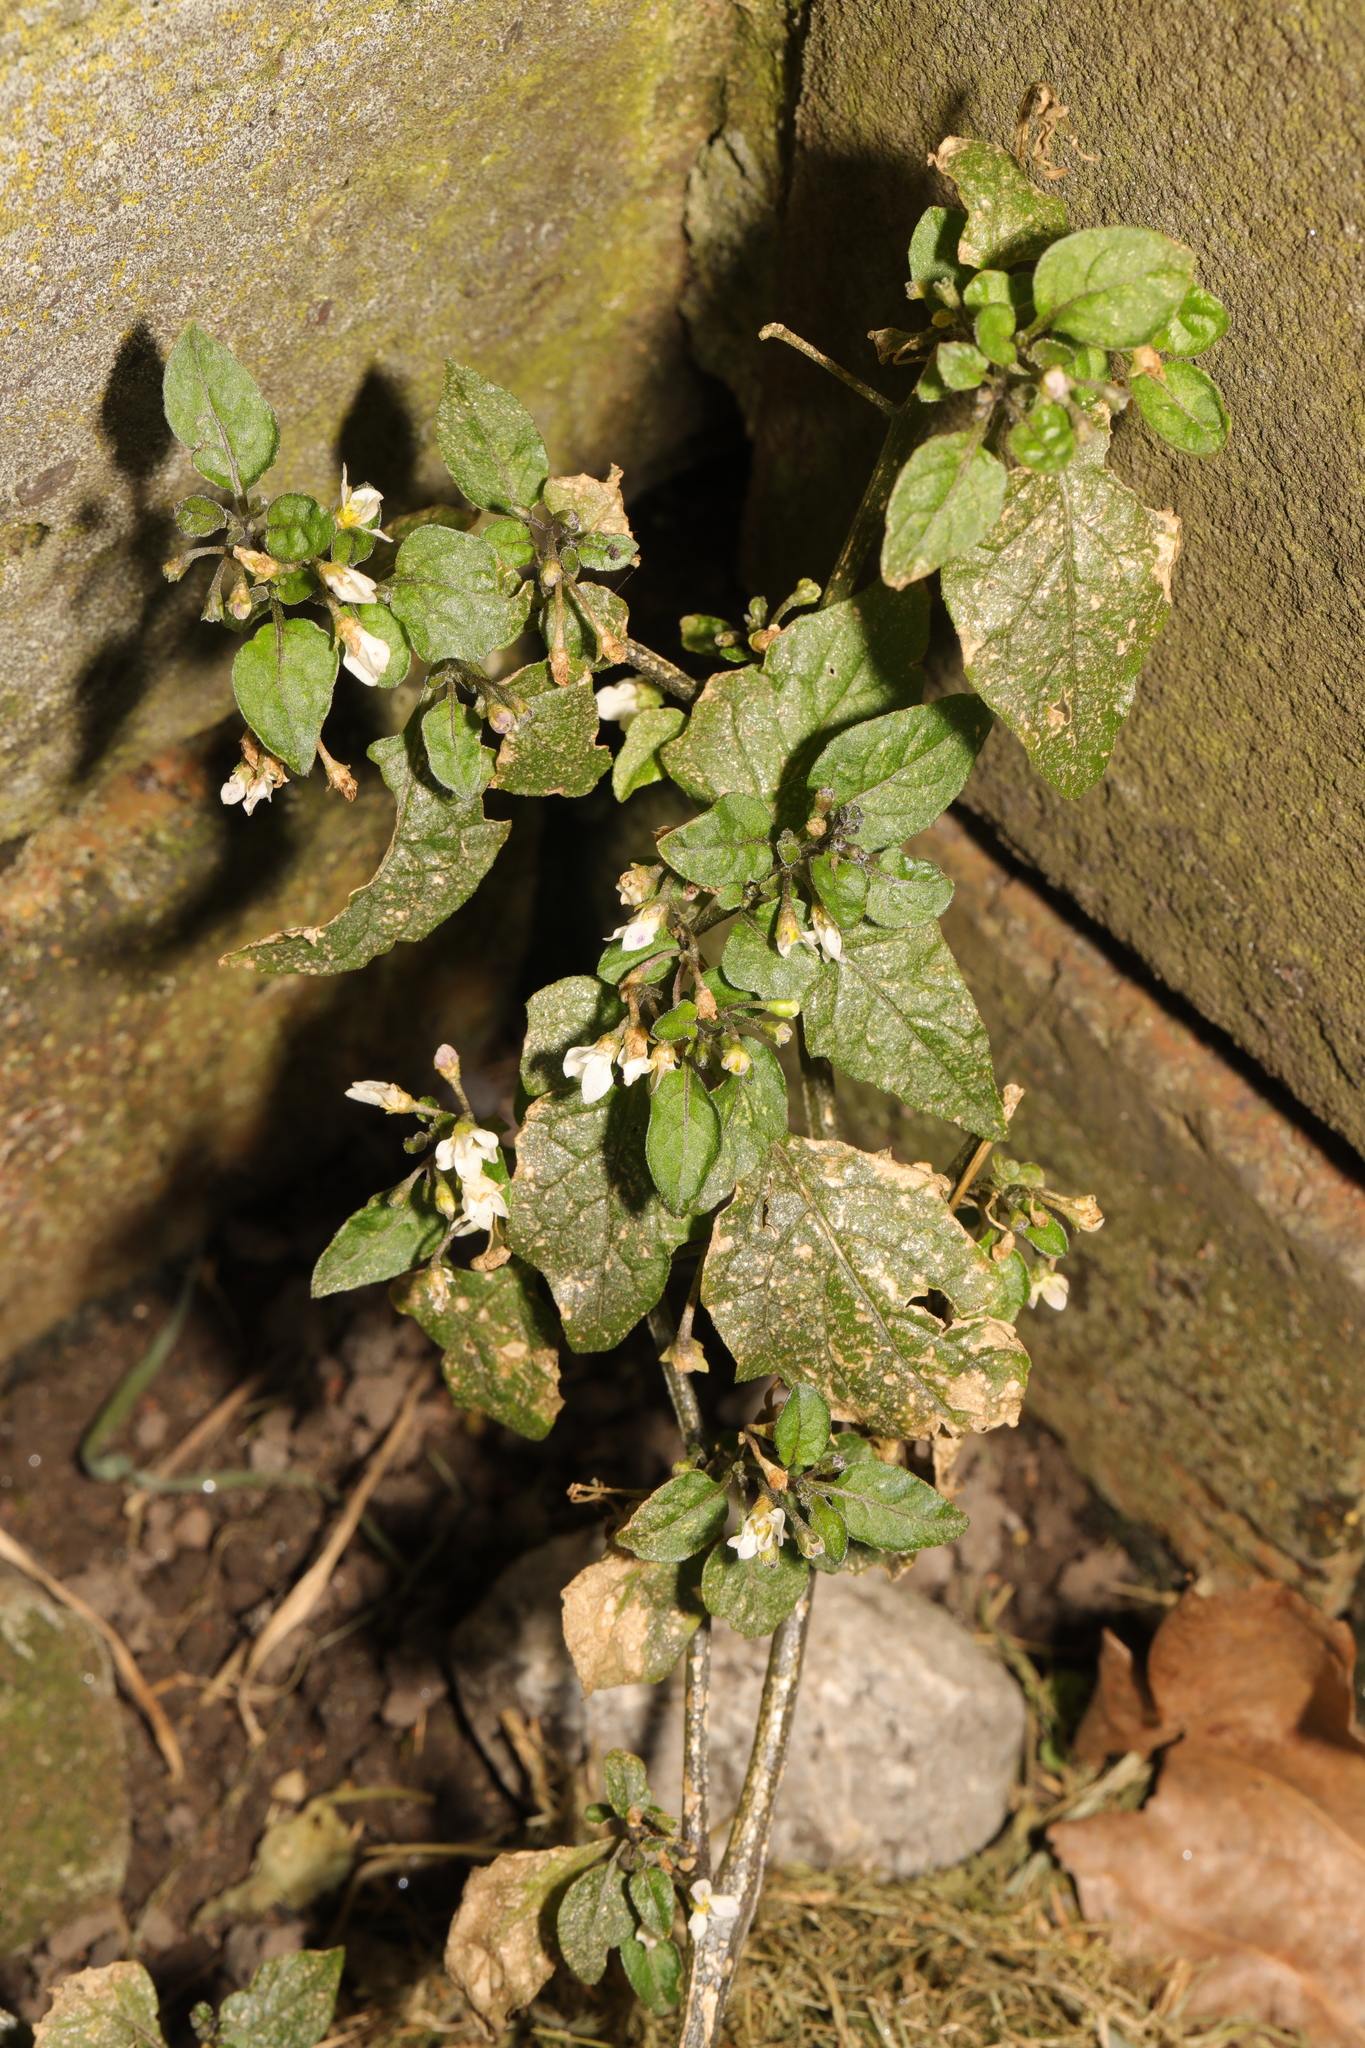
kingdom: Plantae
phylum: Tracheophyta
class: Magnoliopsida
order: Solanales
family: Solanaceae
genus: Solanum
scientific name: Solanum nigrum
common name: Black nightshade
